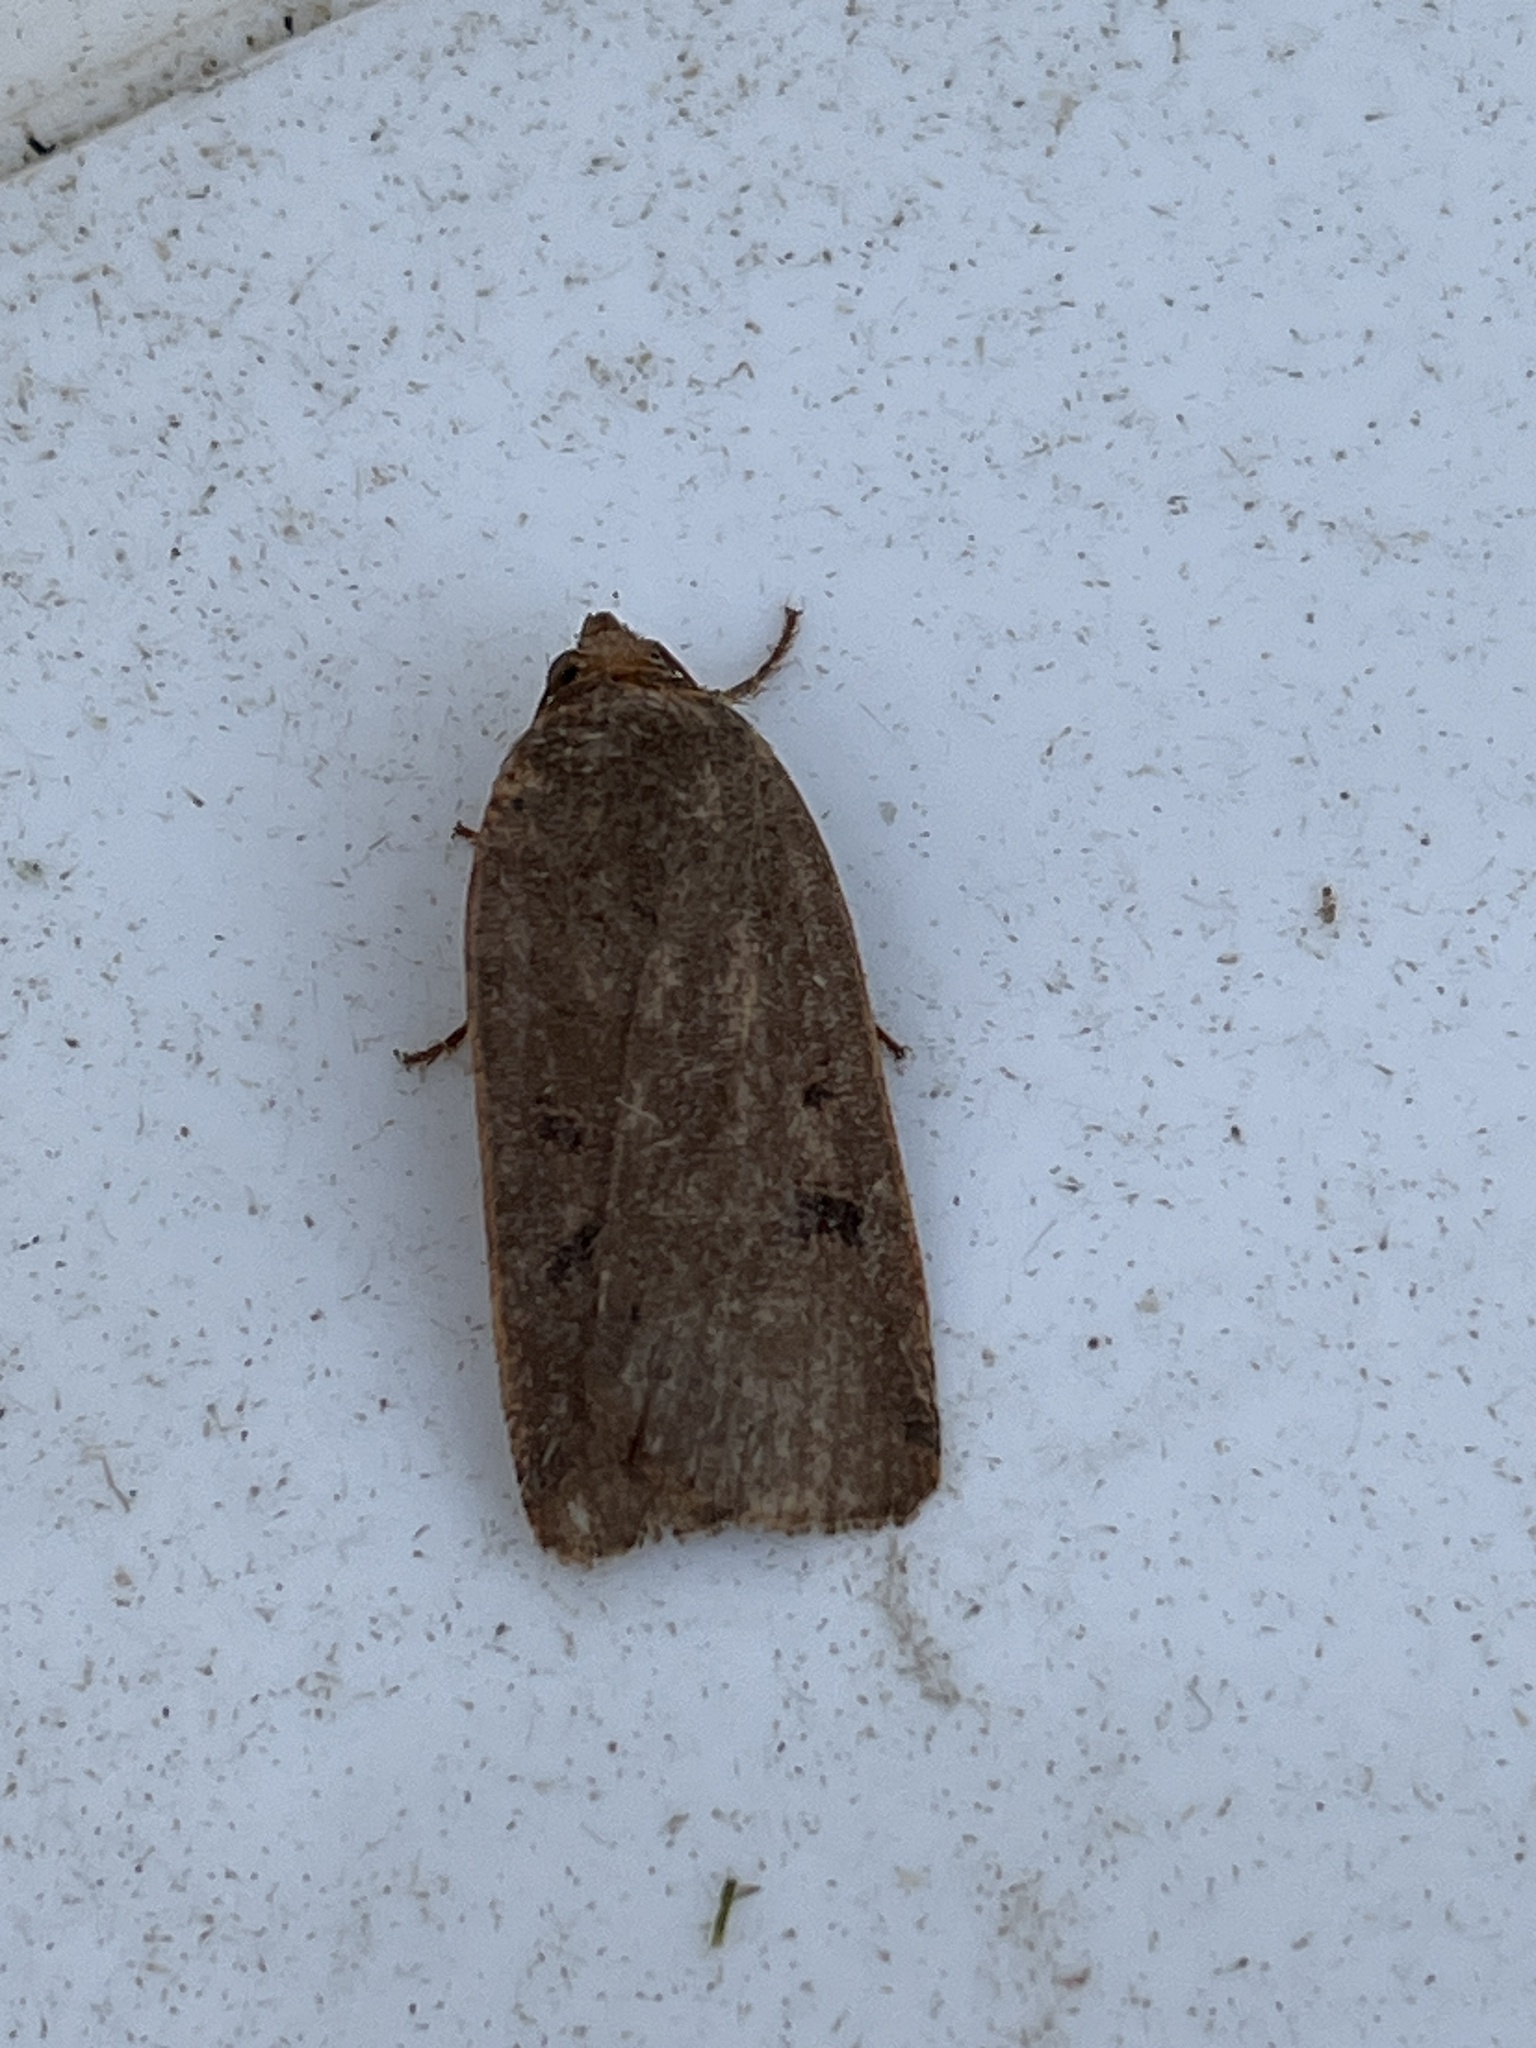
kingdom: Animalia
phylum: Arthropoda
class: Insecta
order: Lepidoptera
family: Noctuidae
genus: Noctua
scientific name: Noctua comes
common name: Lesser yellow underwing
